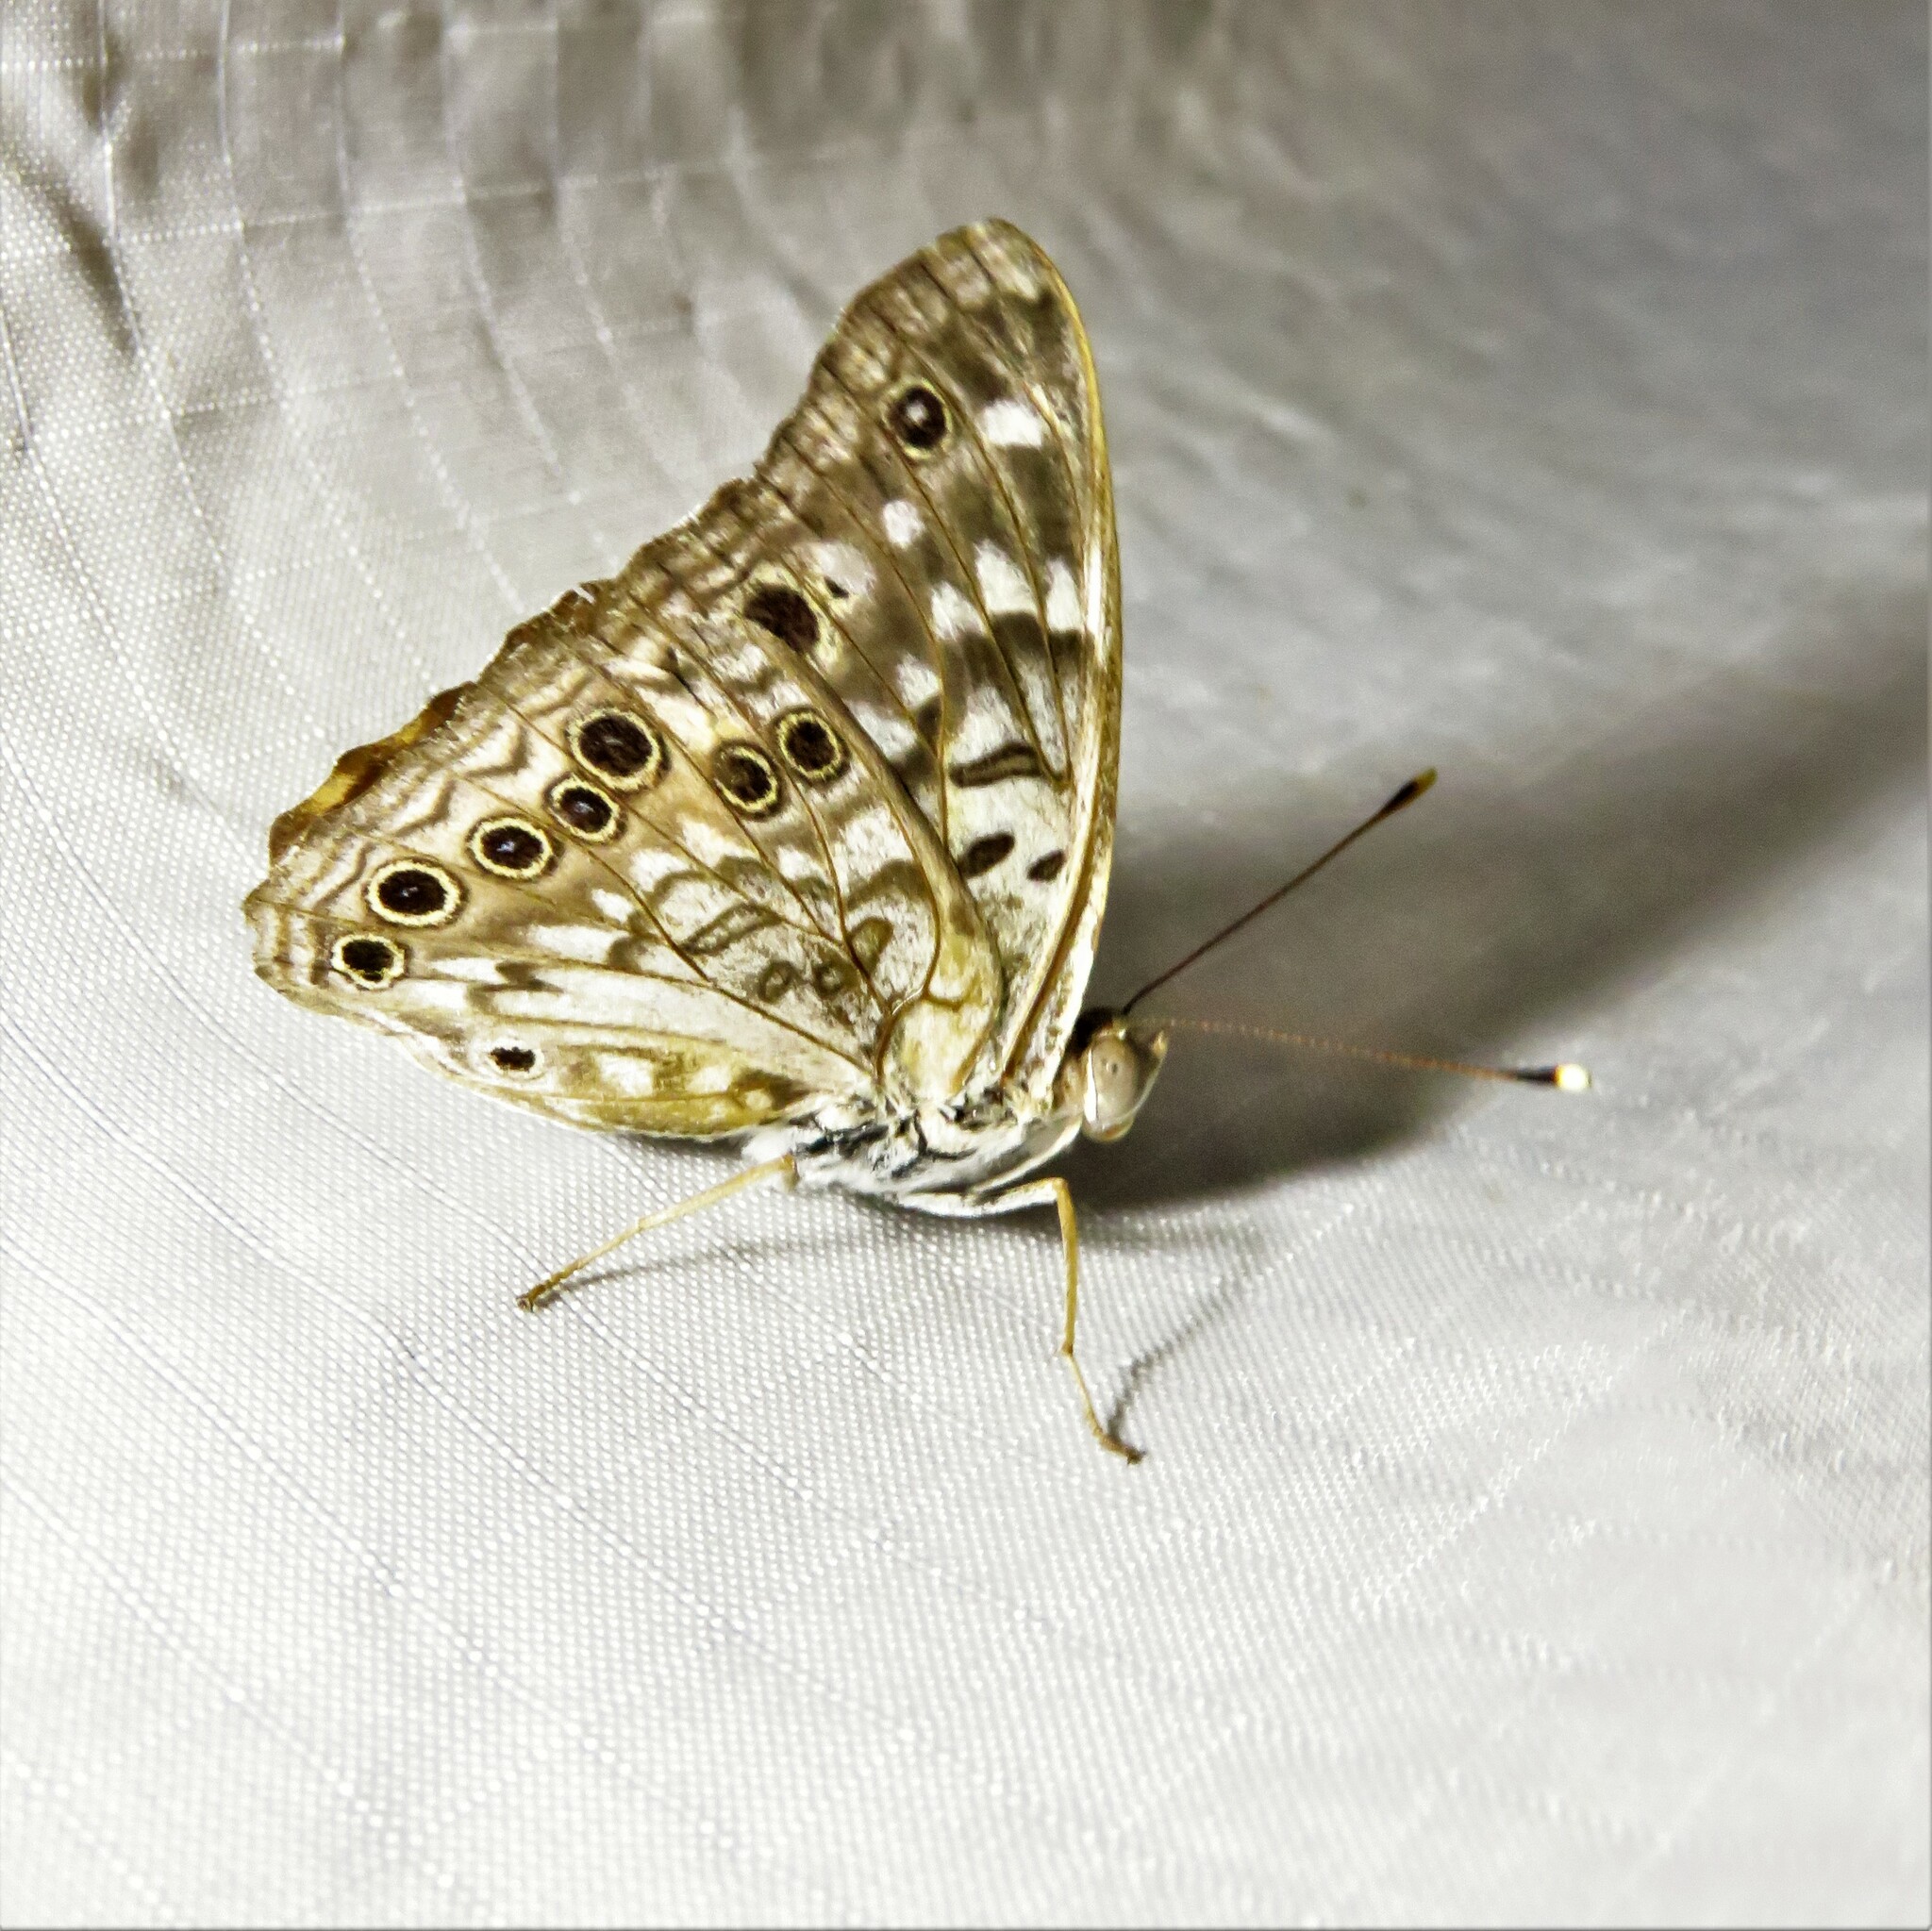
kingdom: Animalia
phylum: Arthropoda
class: Insecta
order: Lepidoptera
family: Nymphalidae
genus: Asterocampa
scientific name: Asterocampa celtis
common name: Hackberry emperor
